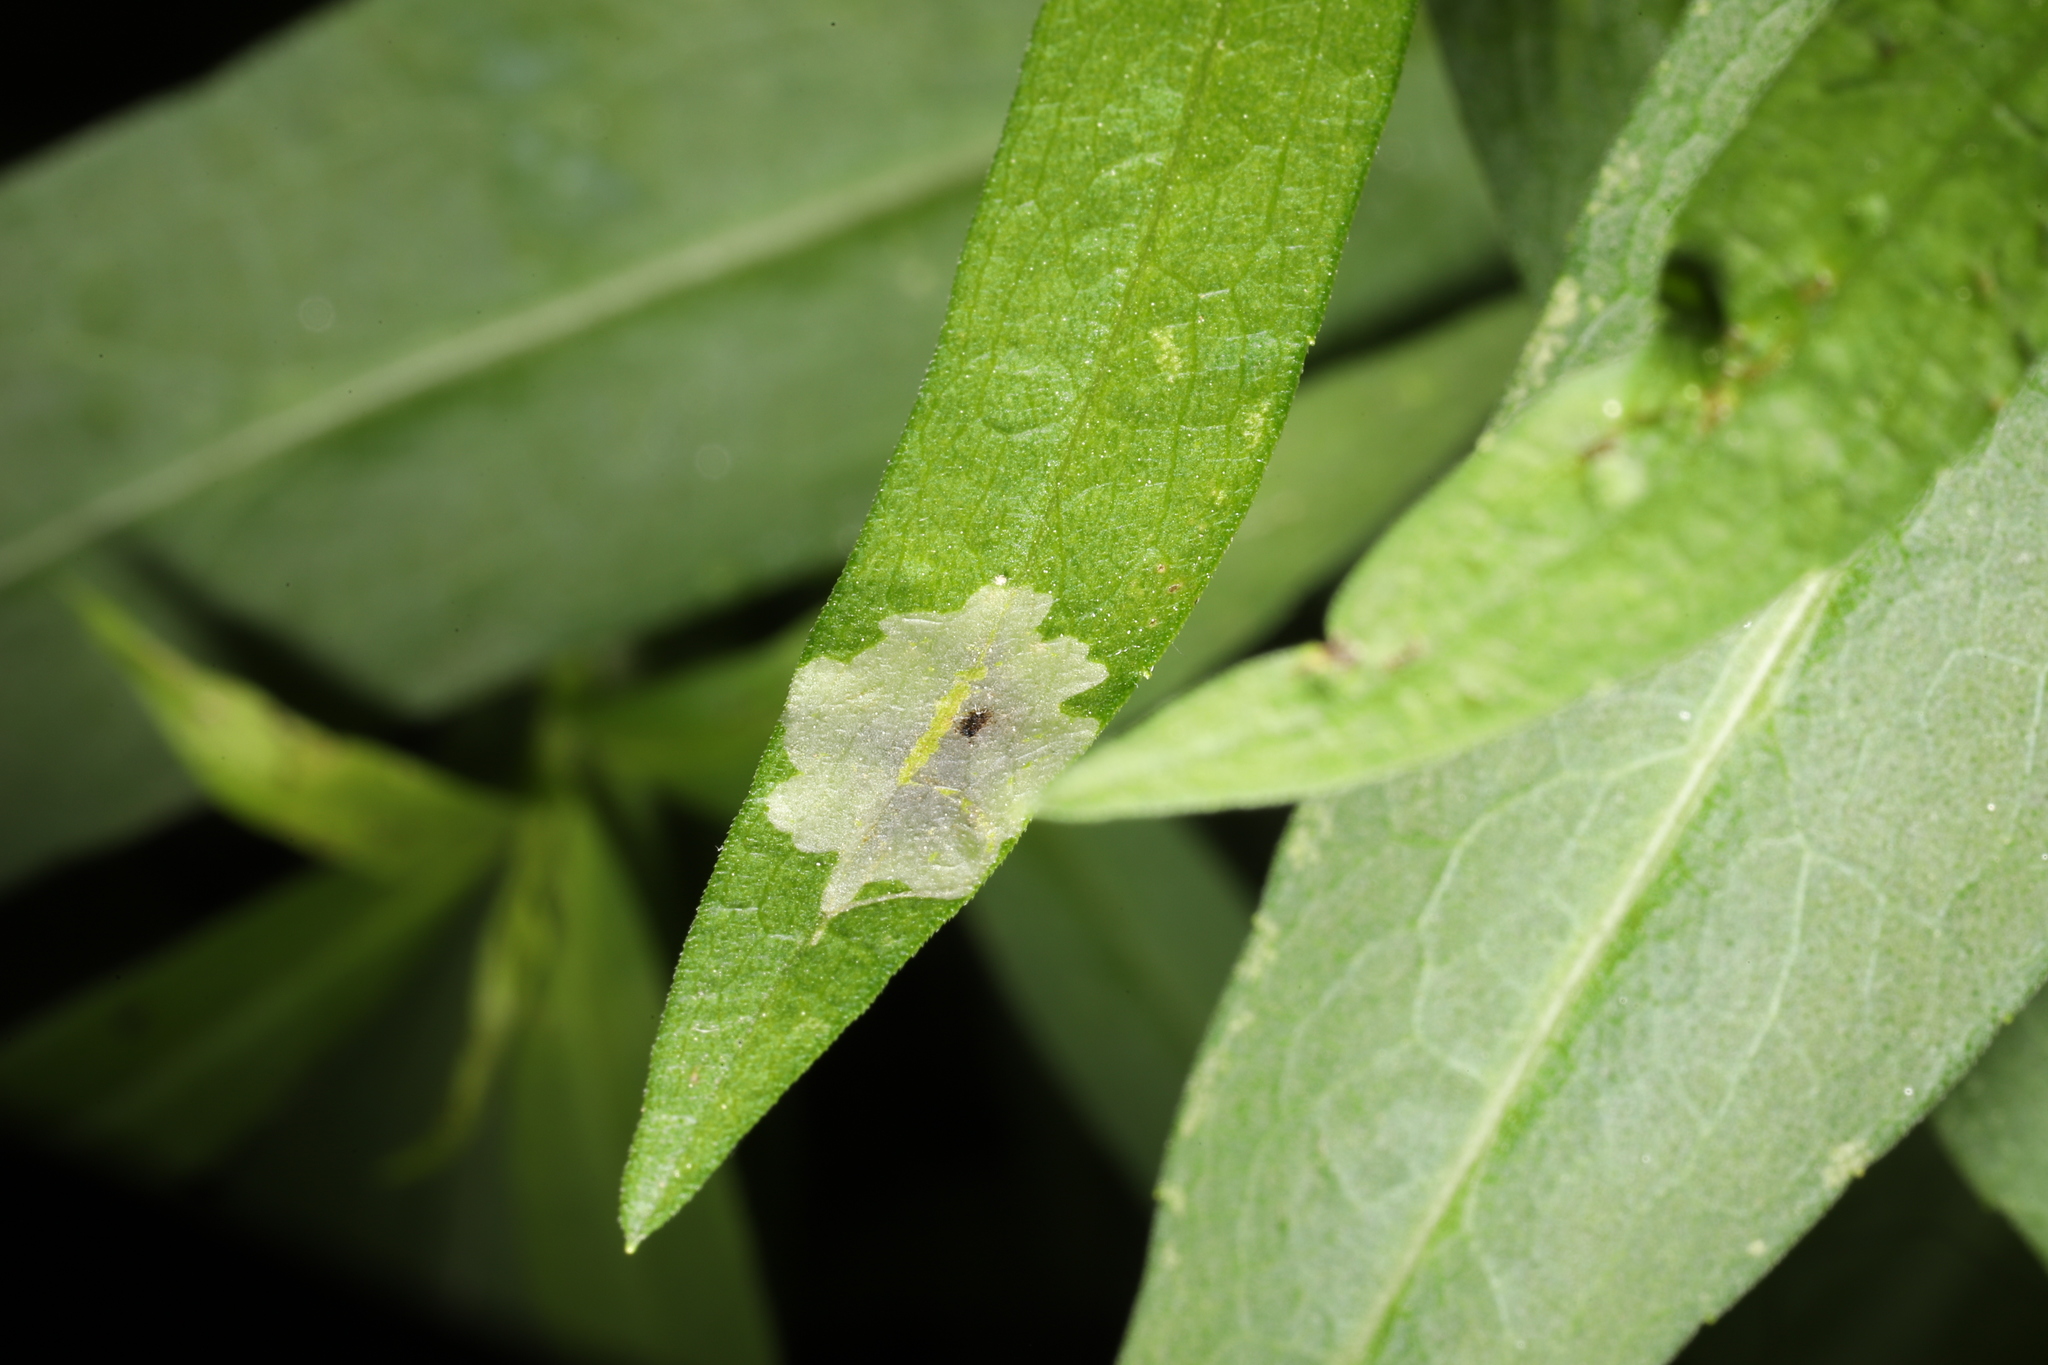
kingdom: Animalia
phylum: Arthropoda
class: Insecta
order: Diptera
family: Agromyzidae
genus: Calycomyza
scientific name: Calycomyza promissa
